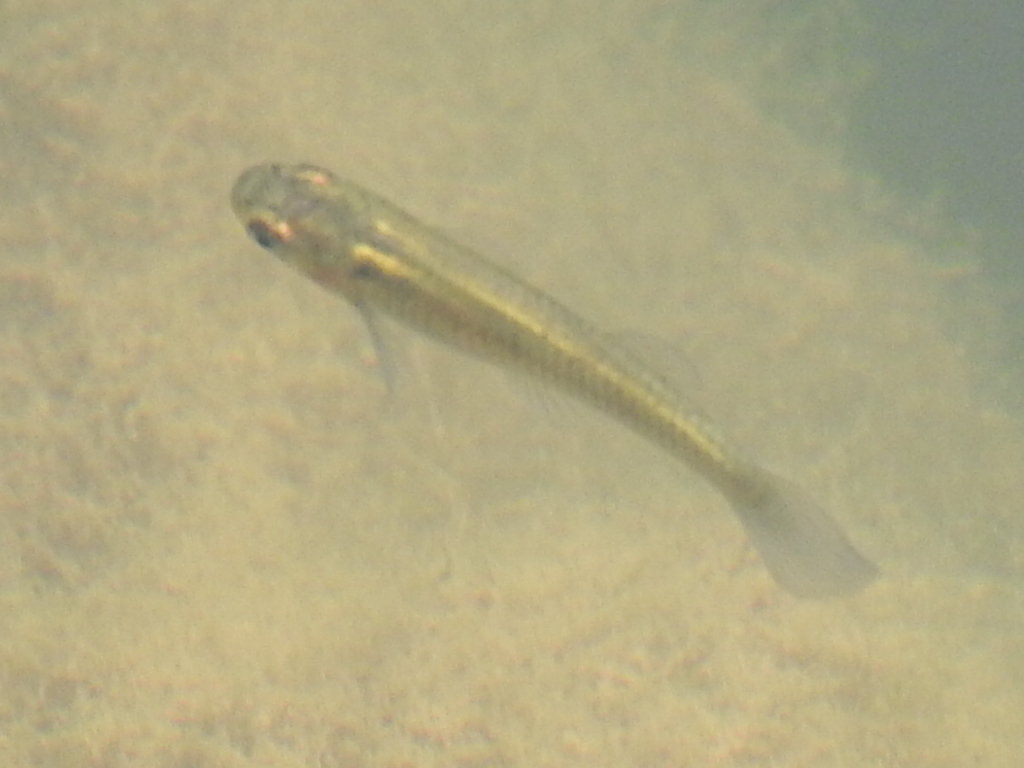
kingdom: Animalia
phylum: Chordata
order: Cyprinodontiformes
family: Poeciliidae
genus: Gambusia
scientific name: Gambusia affinis
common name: Mosquitofish
